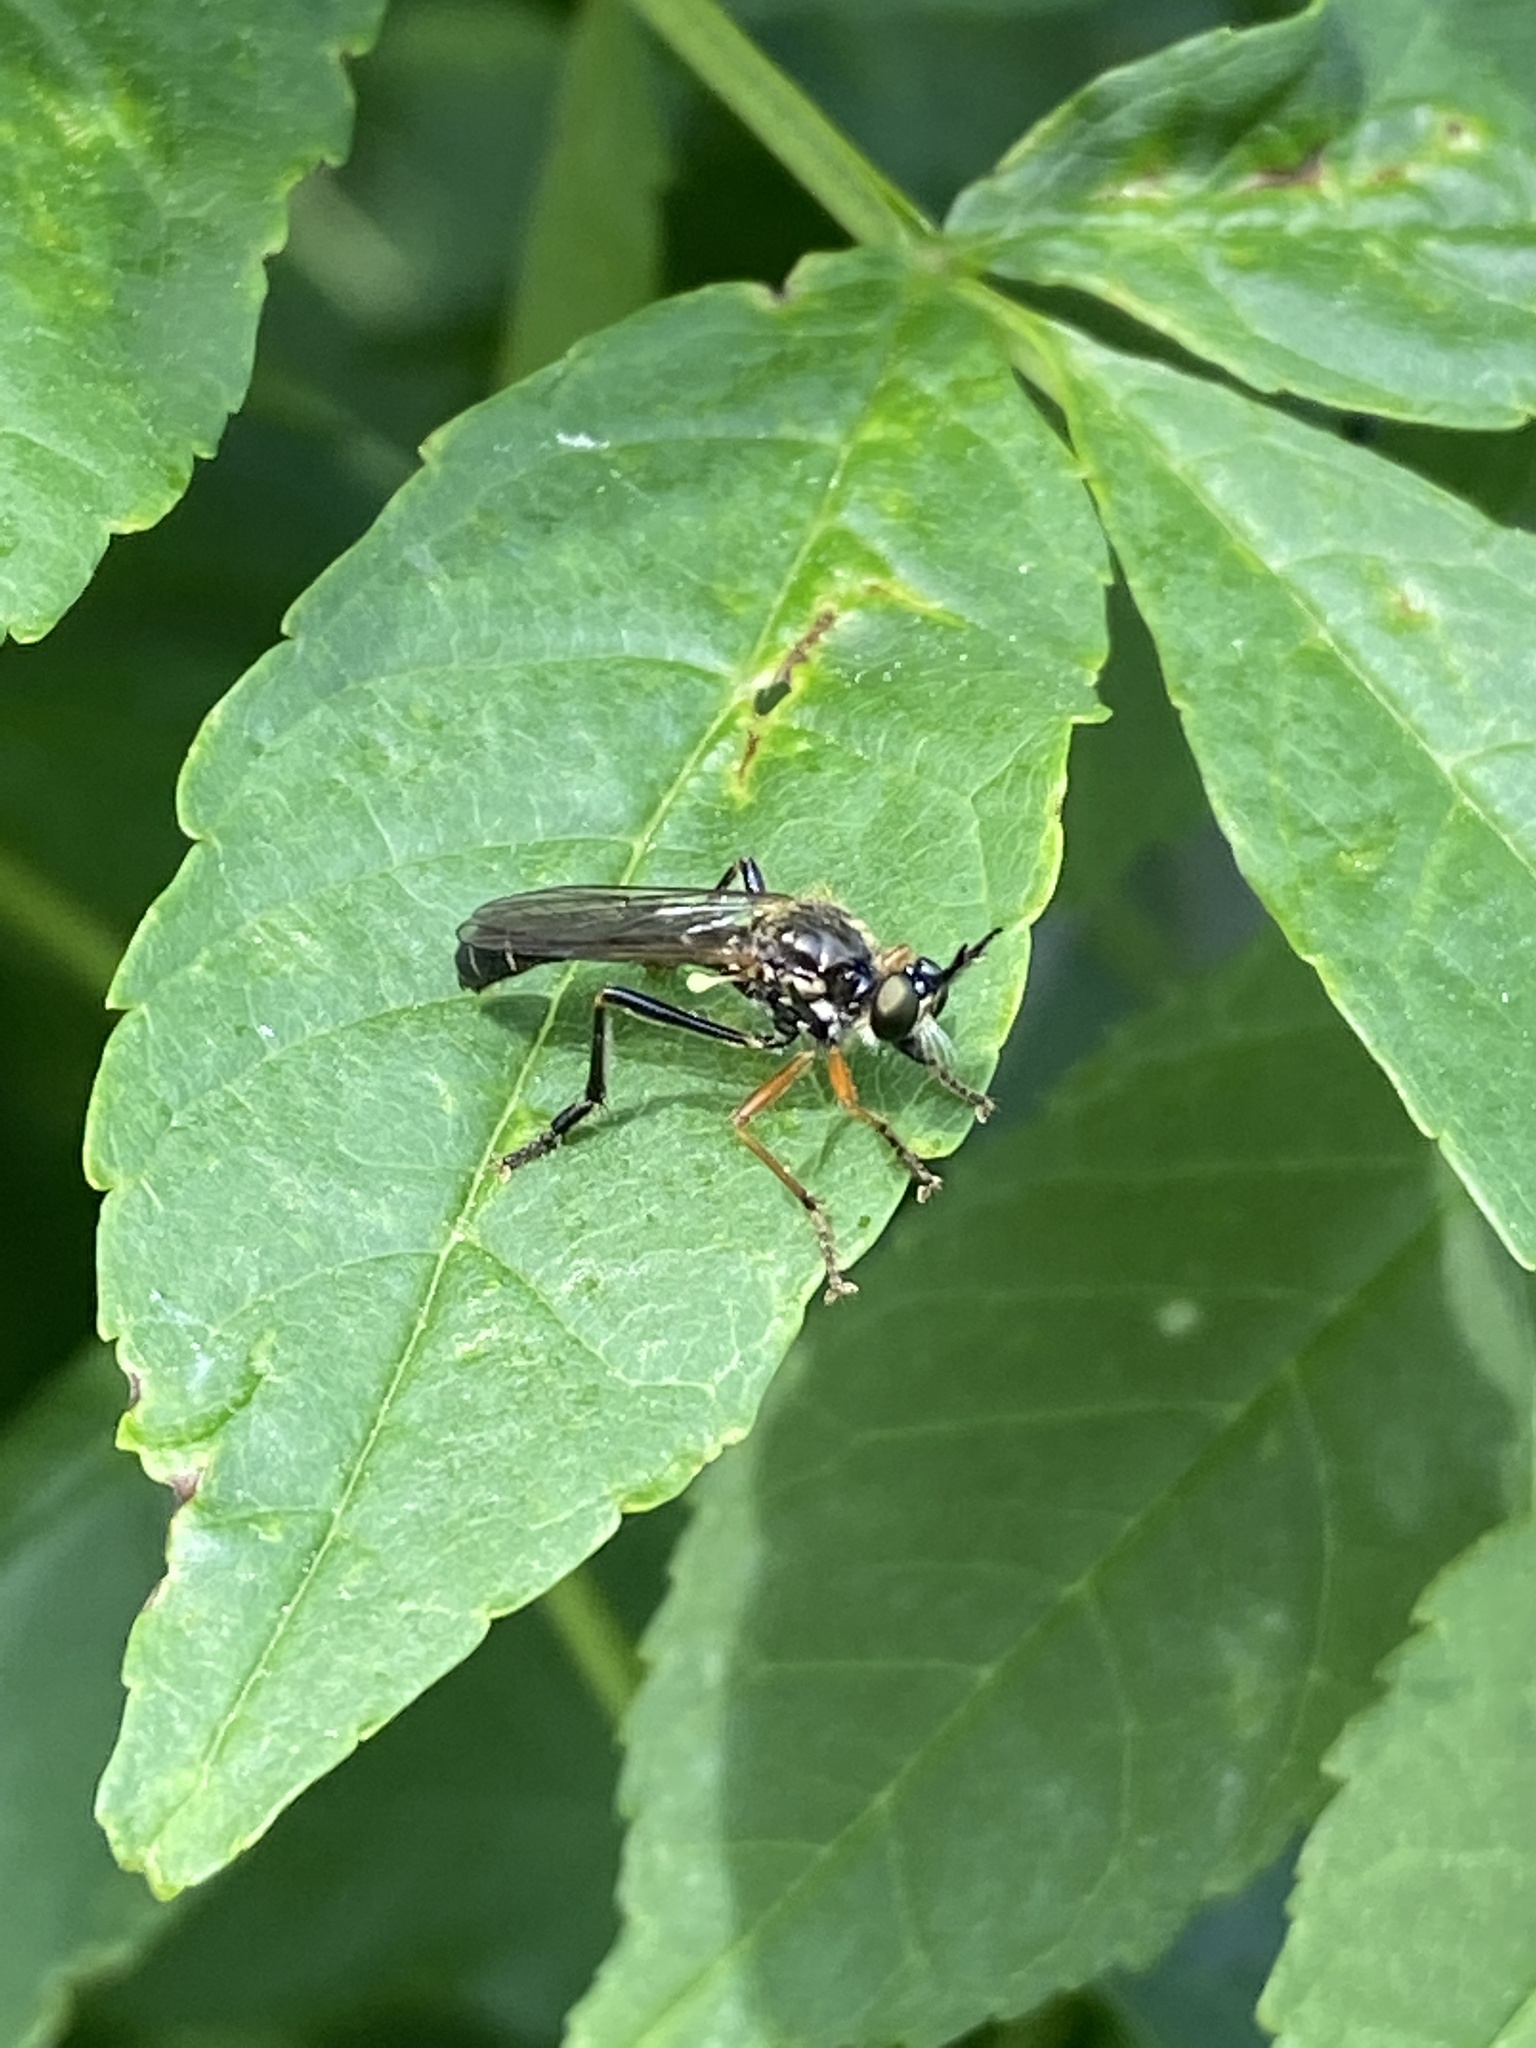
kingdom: Animalia
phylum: Arthropoda
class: Insecta
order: Diptera
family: Asilidae
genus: Dioctria
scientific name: Dioctria rufipes
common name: Common red-legged robberfly
